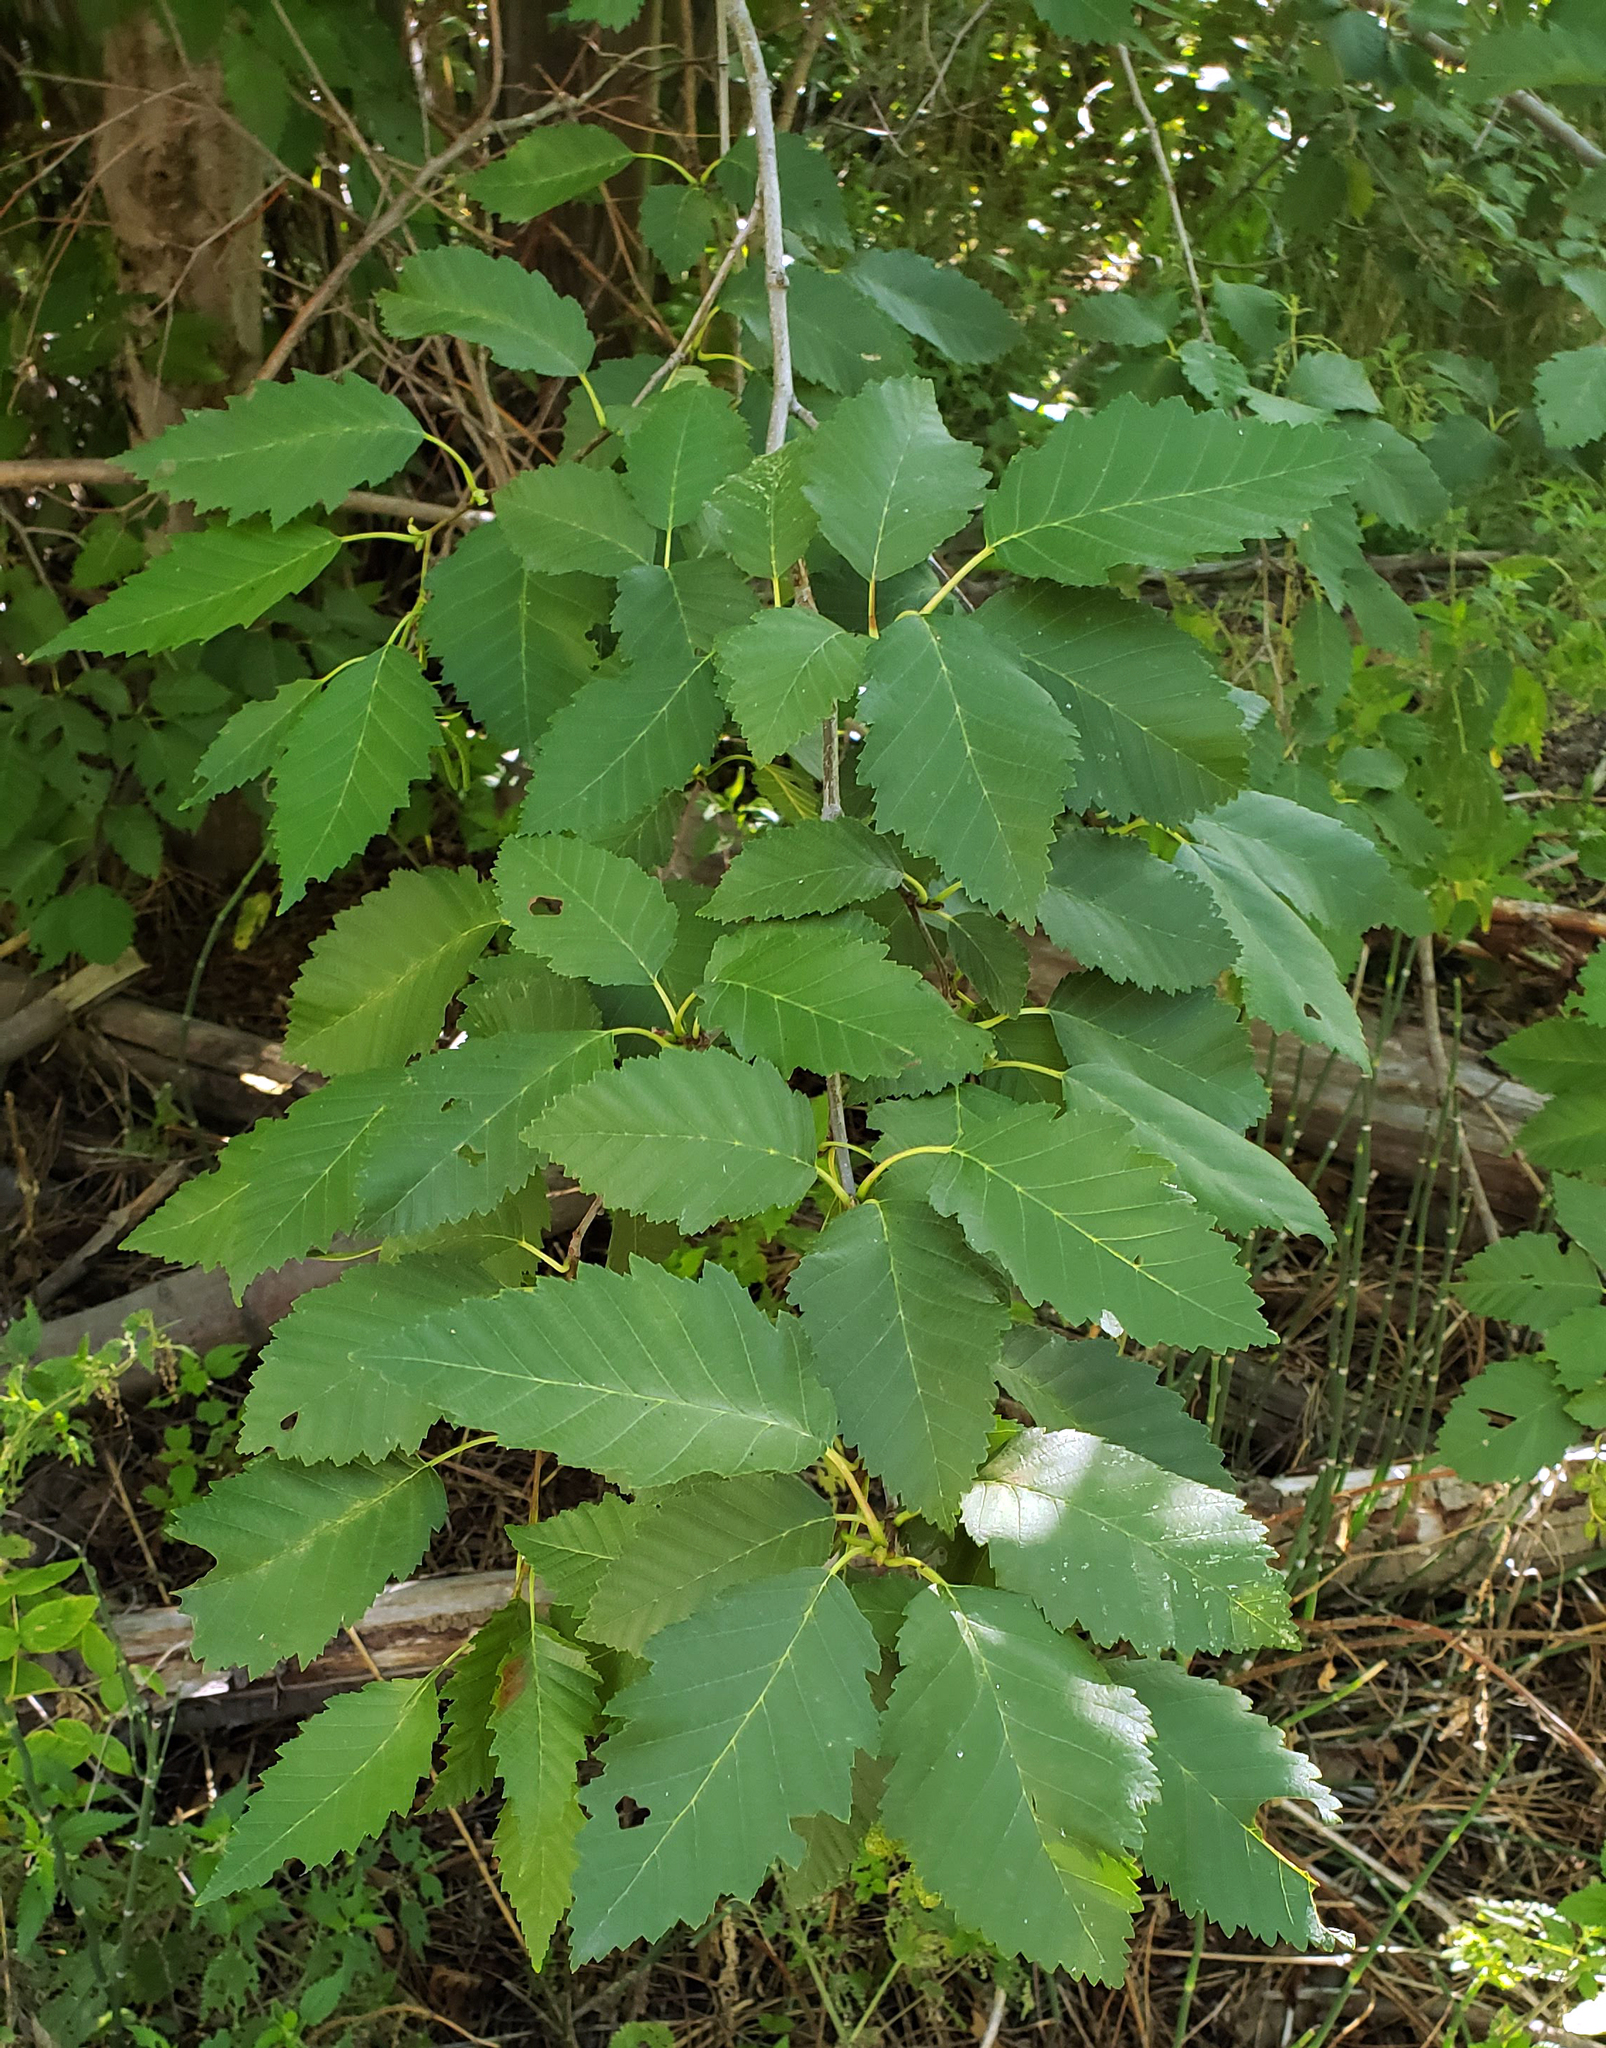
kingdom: Plantae
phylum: Tracheophyta
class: Magnoliopsida
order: Fagales
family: Betulaceae
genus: Alnus
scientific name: Alnus incana
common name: Grey alder
